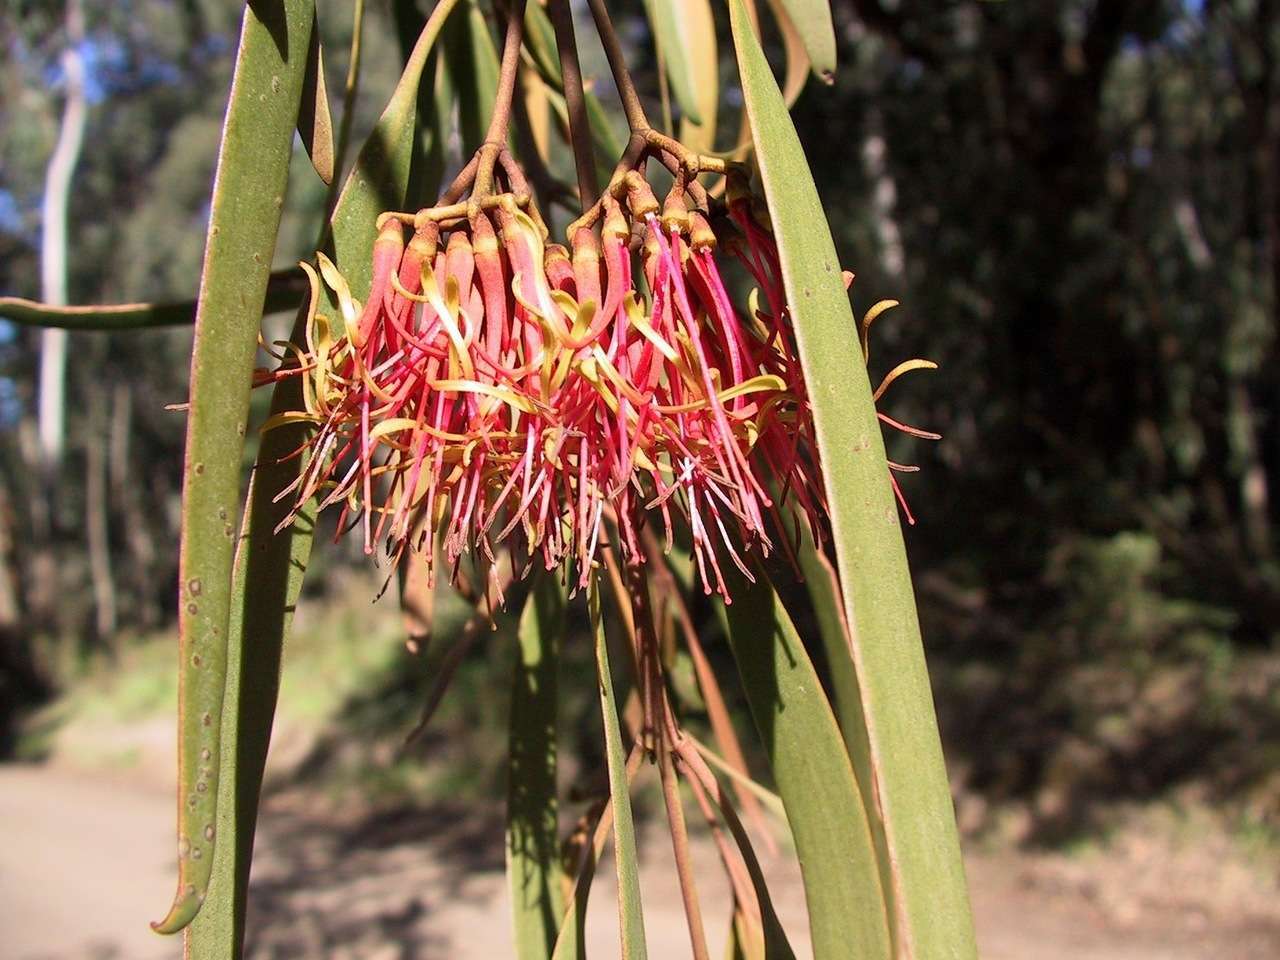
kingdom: Plantae
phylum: Tracheophyta
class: Magnoliopsida
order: Santalales
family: Loranthaceae
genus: Amyema
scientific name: Amyema pendula
